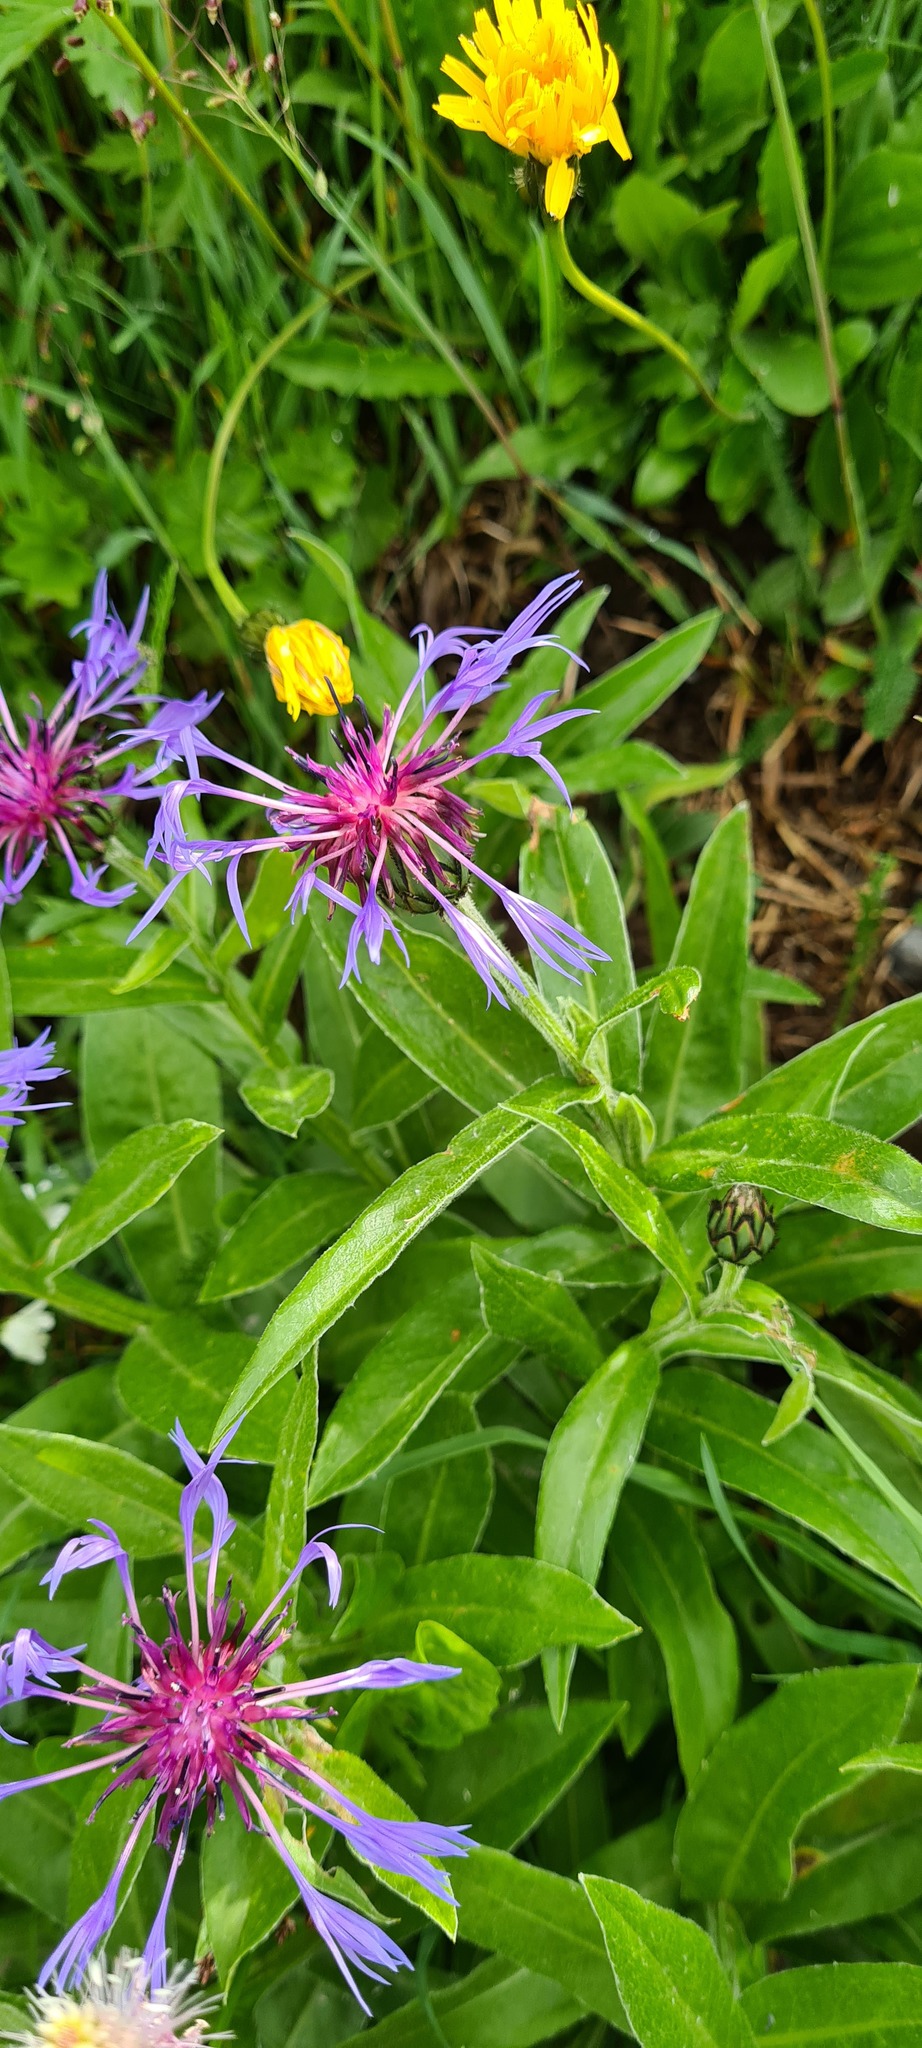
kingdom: Plantae
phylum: Tracheophyta
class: Magnoliopsida
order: Asterales
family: Asteraceae
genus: Centaurea
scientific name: Centaurea montana
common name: Perennial cornflower
